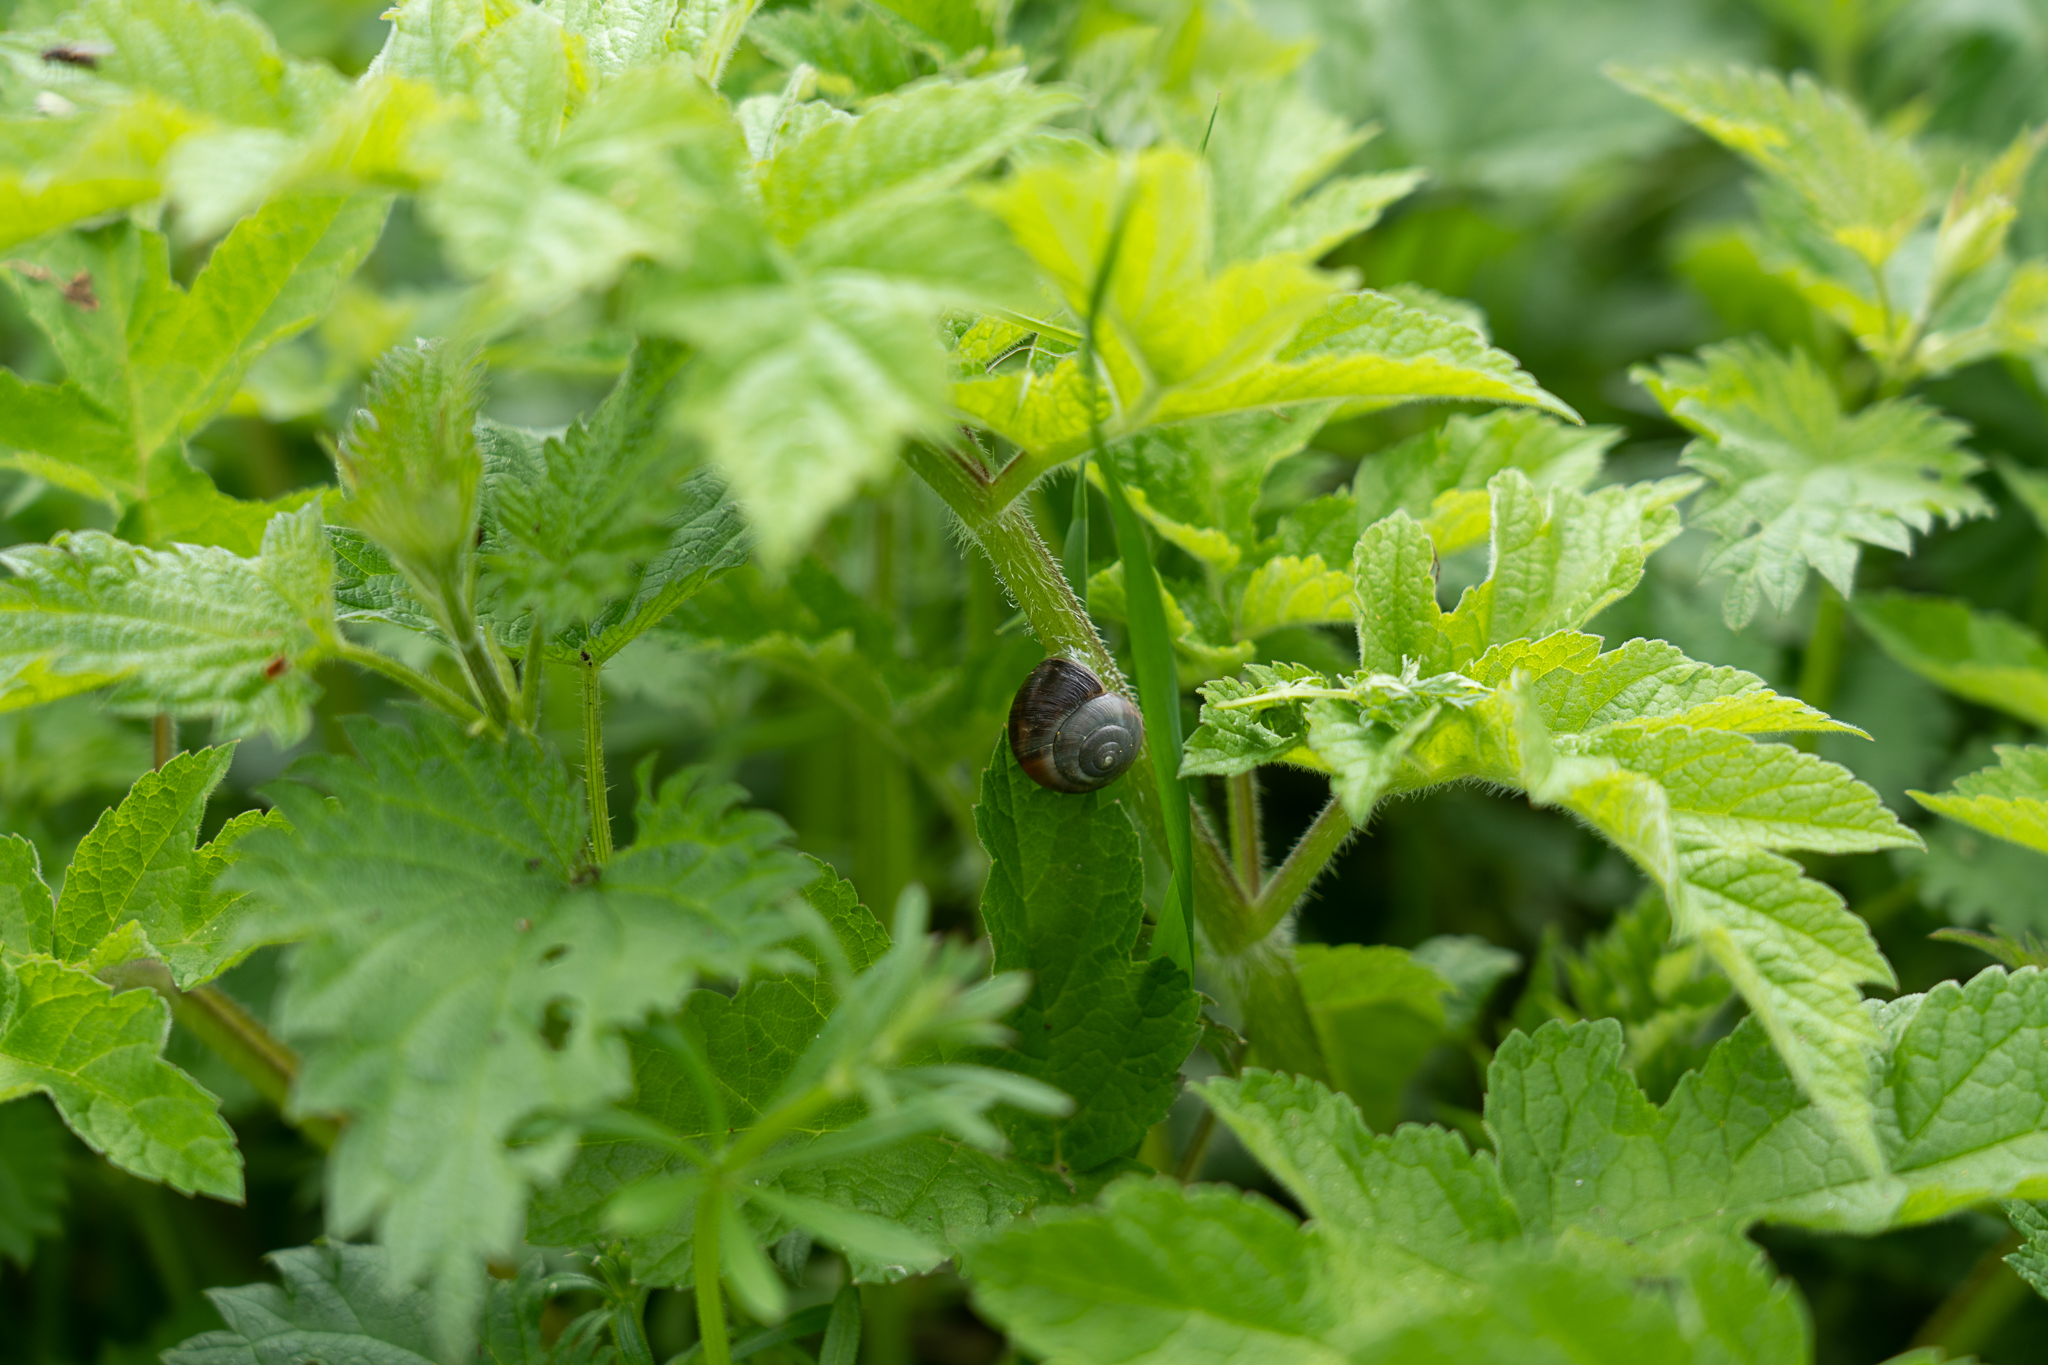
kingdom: Animalia
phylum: Mollusca
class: Gastropoda
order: Stylommatophora
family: Hygromiidae
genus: Monacha
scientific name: Monacha cantiana
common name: Kentish snail
